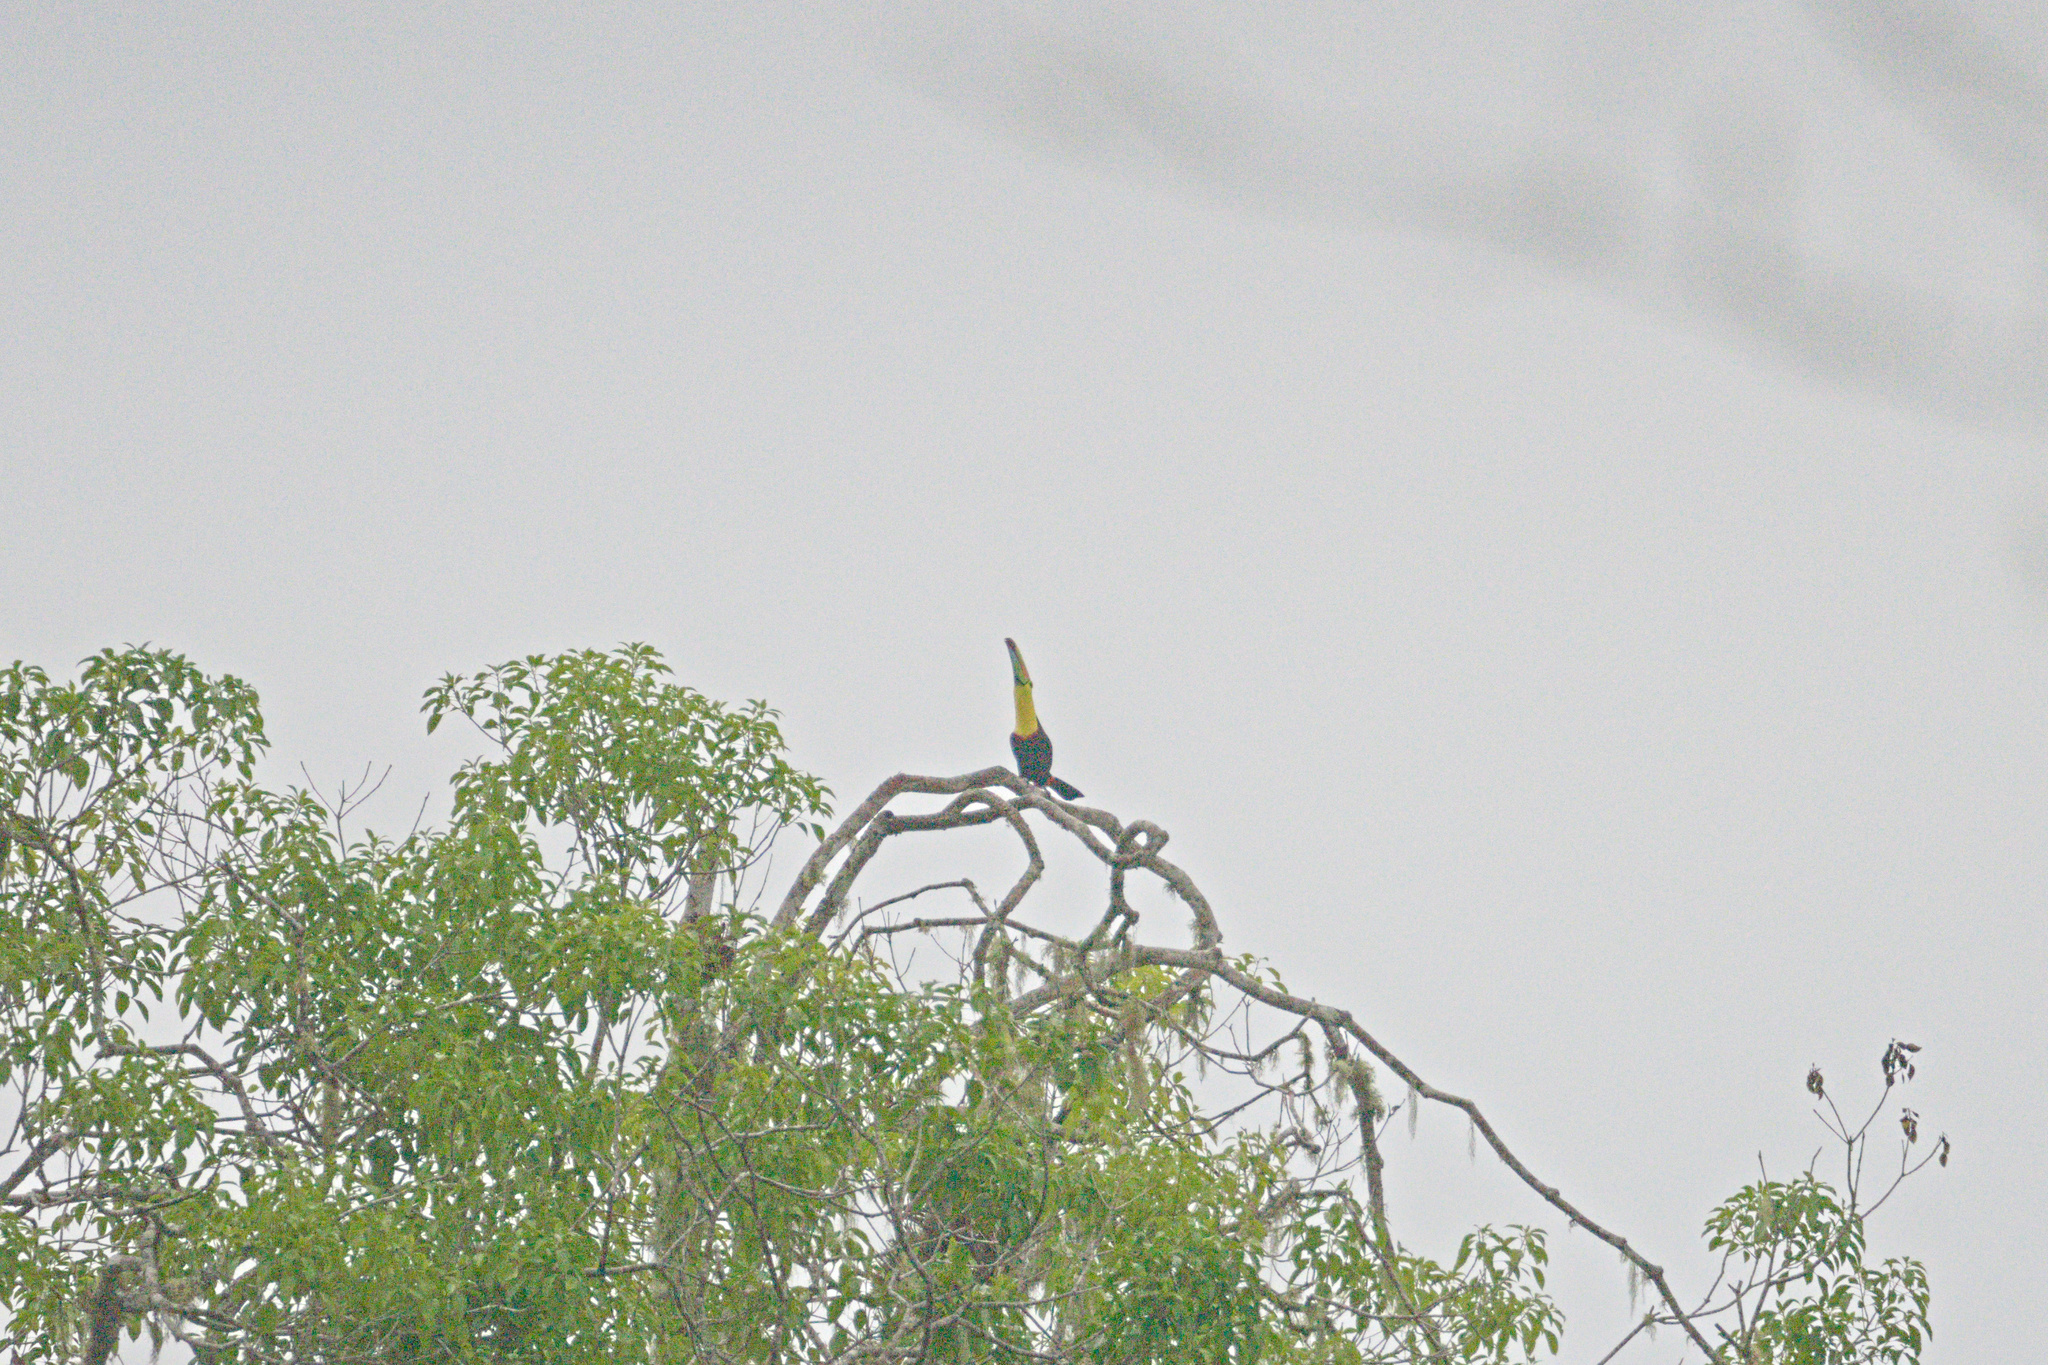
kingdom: Animalia
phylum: Chordata
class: Aves
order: Piciformes
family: Ramphastidae
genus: Ramphastos
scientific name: Ramphastos sulfuratus
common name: Keel-billed toucan
